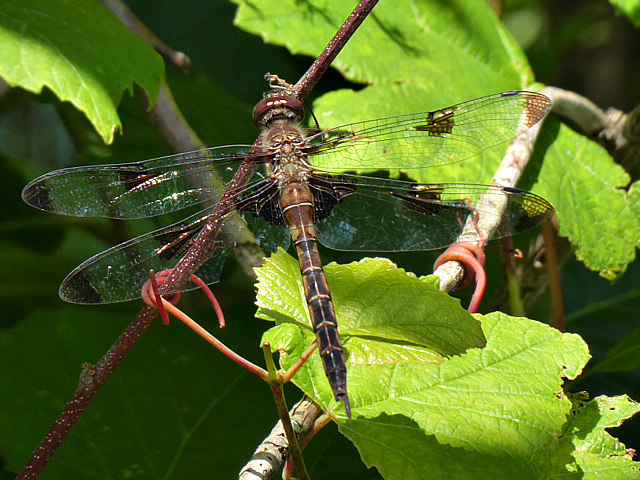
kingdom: Animalia
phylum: Arthropoda
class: Insecta
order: Odonata
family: Corduliidae
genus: Epitheca
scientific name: Epitheca princeps
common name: Prince baskettail
